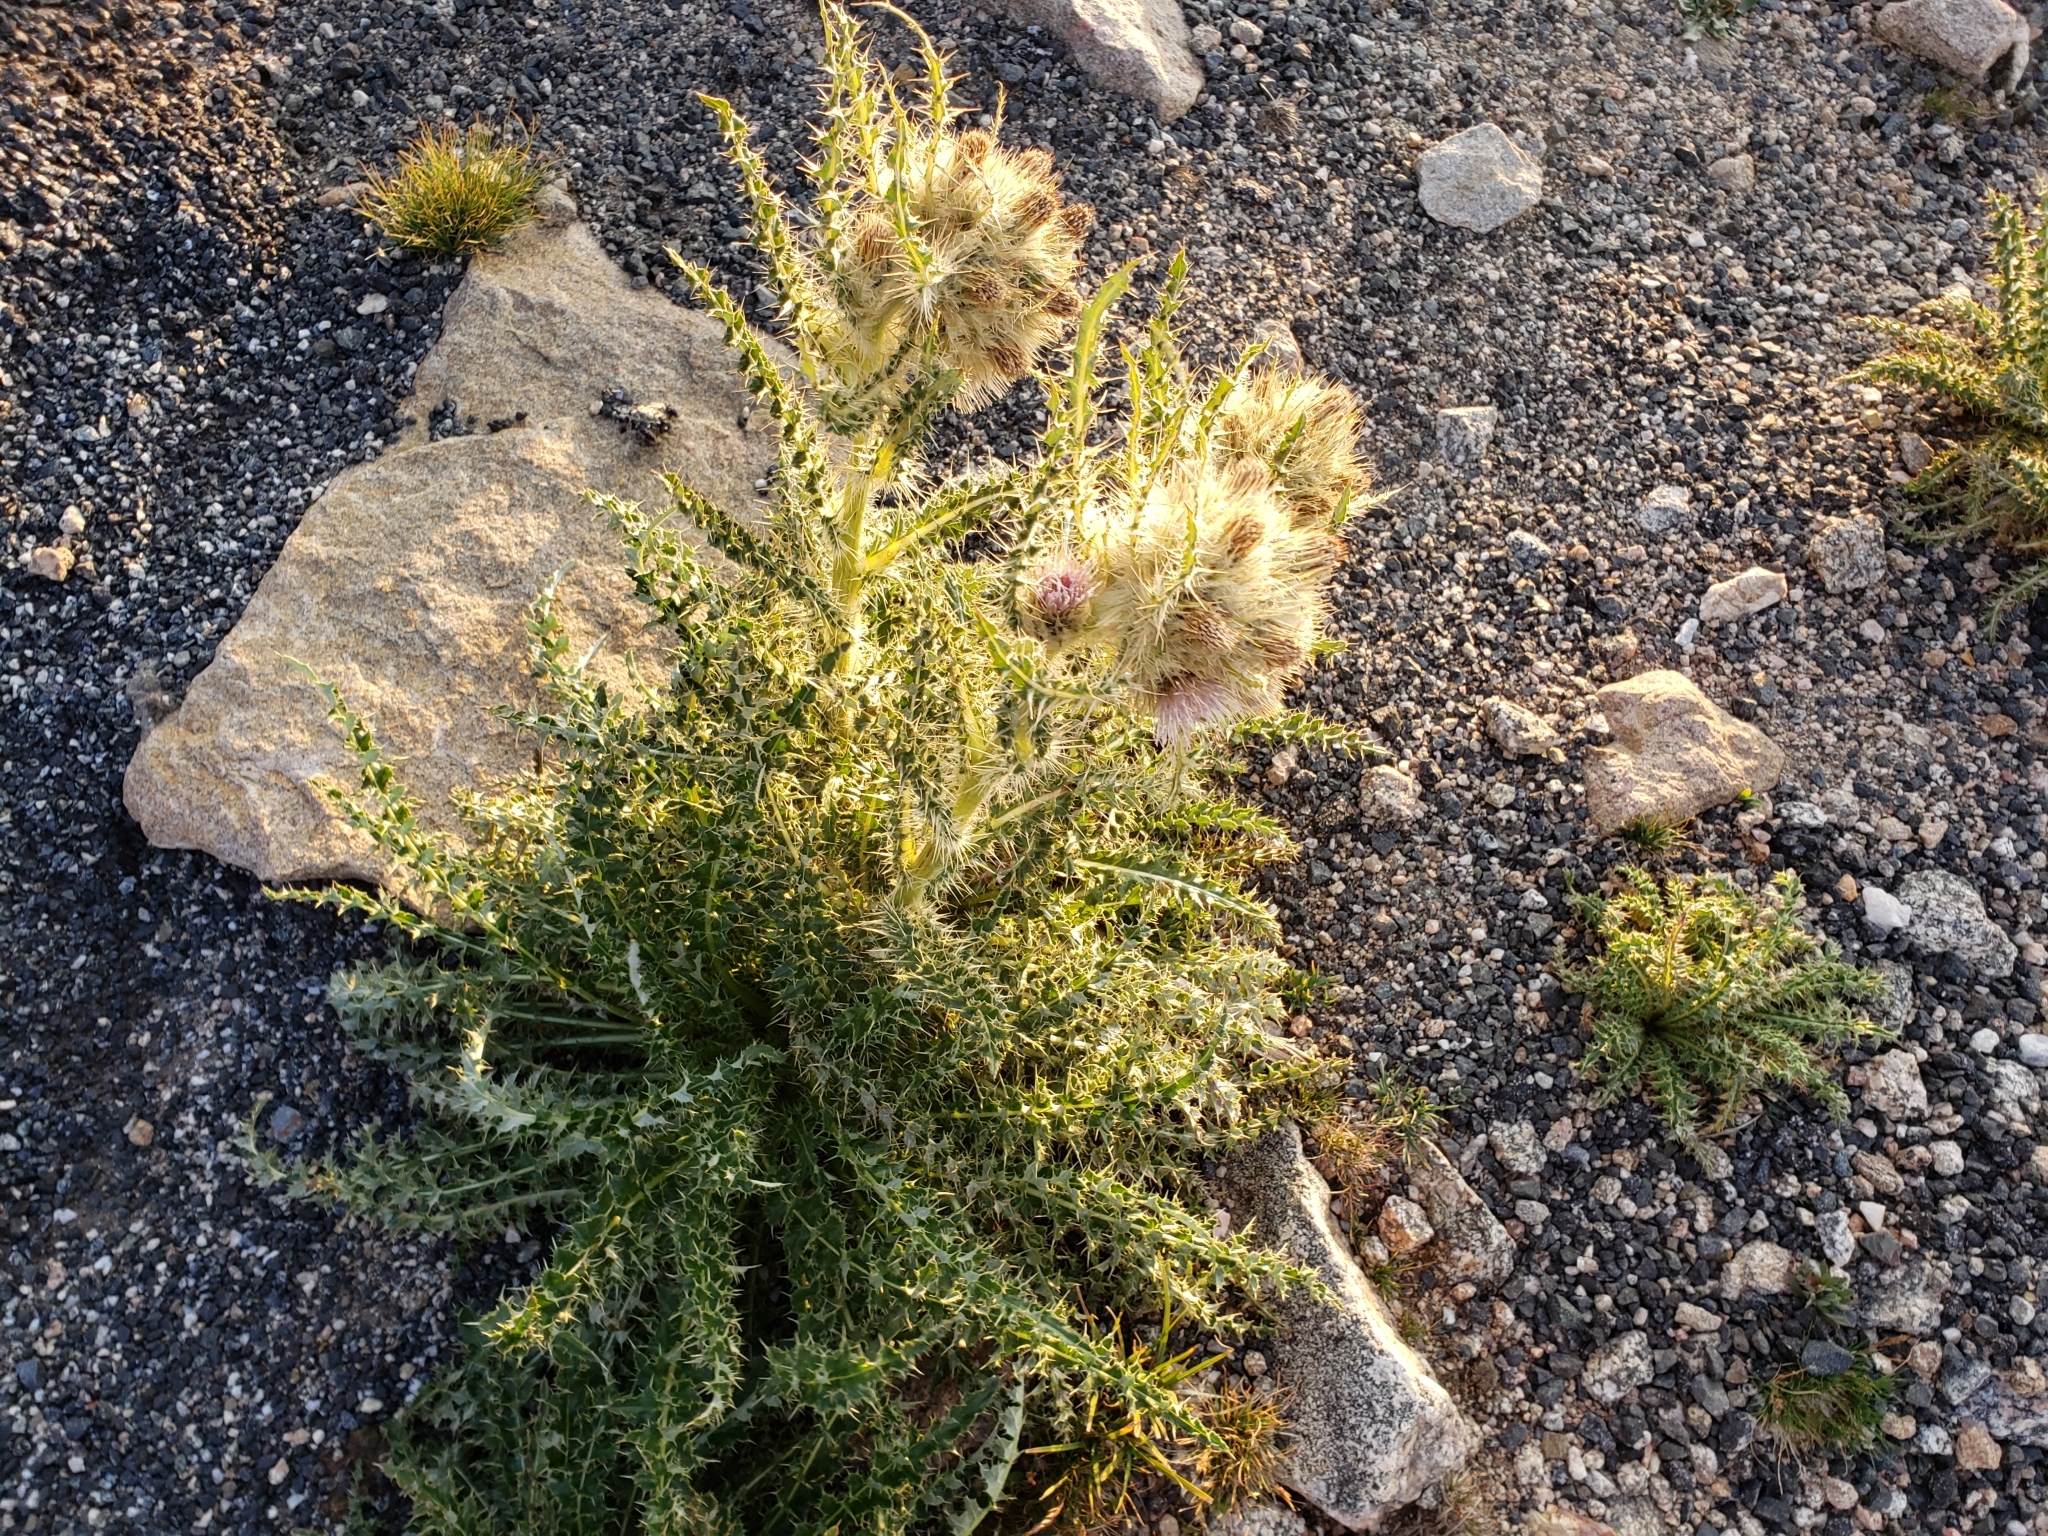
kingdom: Plantae
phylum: Tracheophyta
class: Magnoliopsida
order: Asterales
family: Asteraceae
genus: Cirsium
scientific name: Cirsium scopulorum
